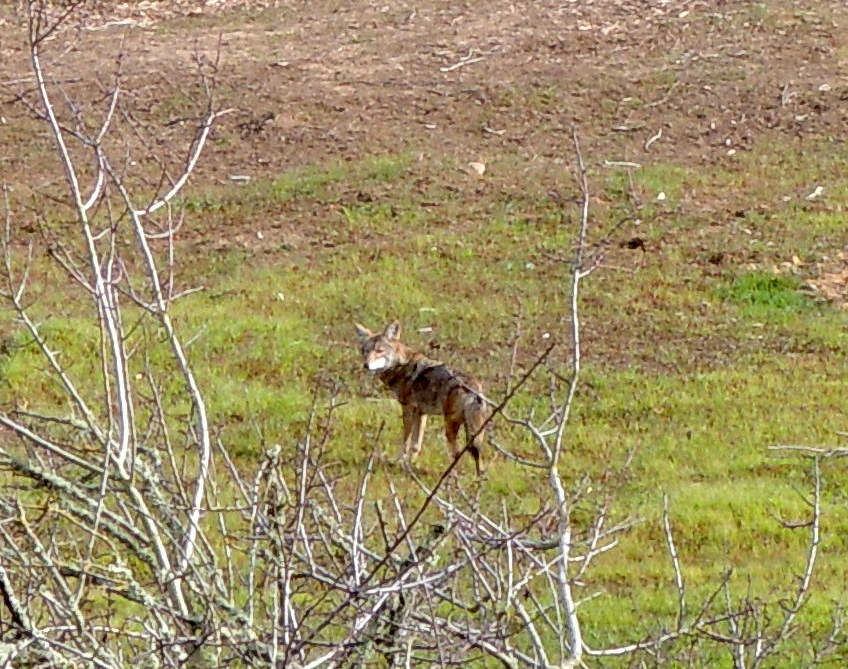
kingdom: Animalia
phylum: Chordata
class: Mammalia
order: Carnivora
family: Canidae
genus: Canis
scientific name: Canis latrans
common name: Coyote
